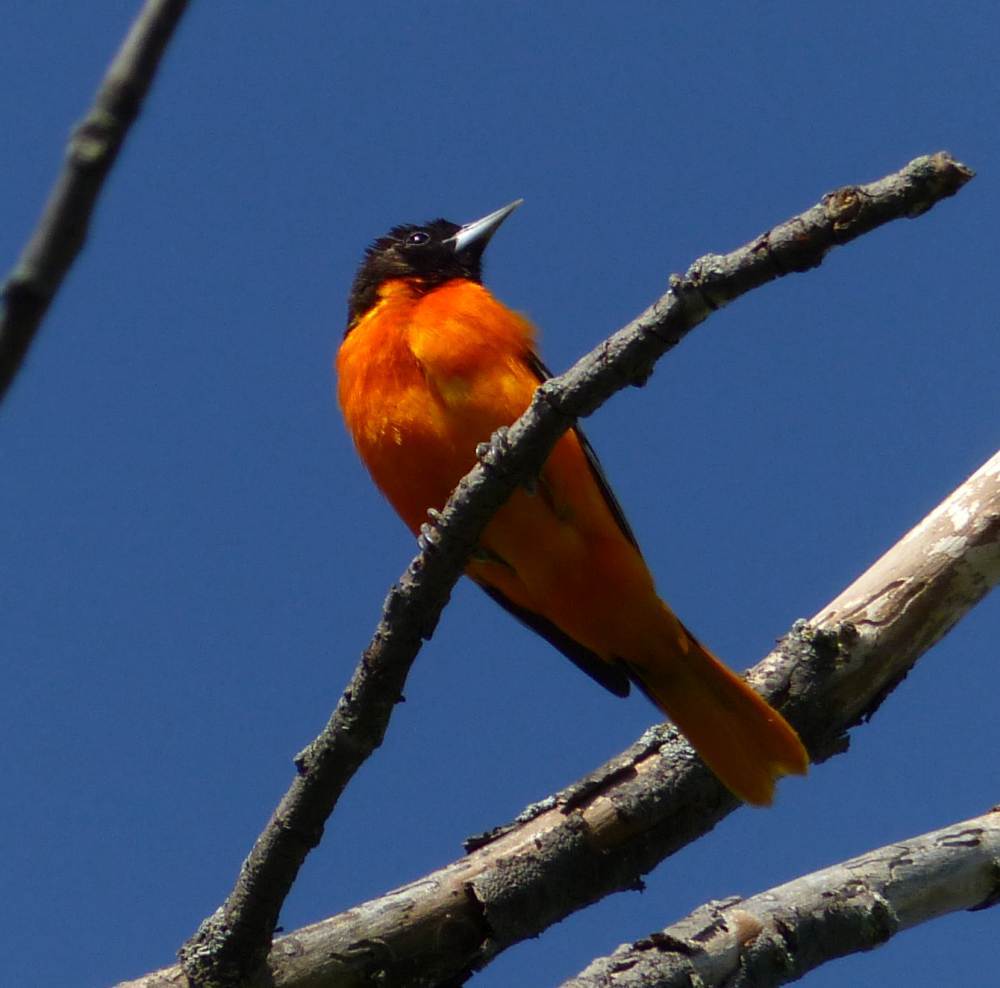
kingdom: Animalia
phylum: Chordata
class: Aves
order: Passeriformes
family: Icteridae
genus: Icterus
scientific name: Icterus galbula
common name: Baltimore oriole
